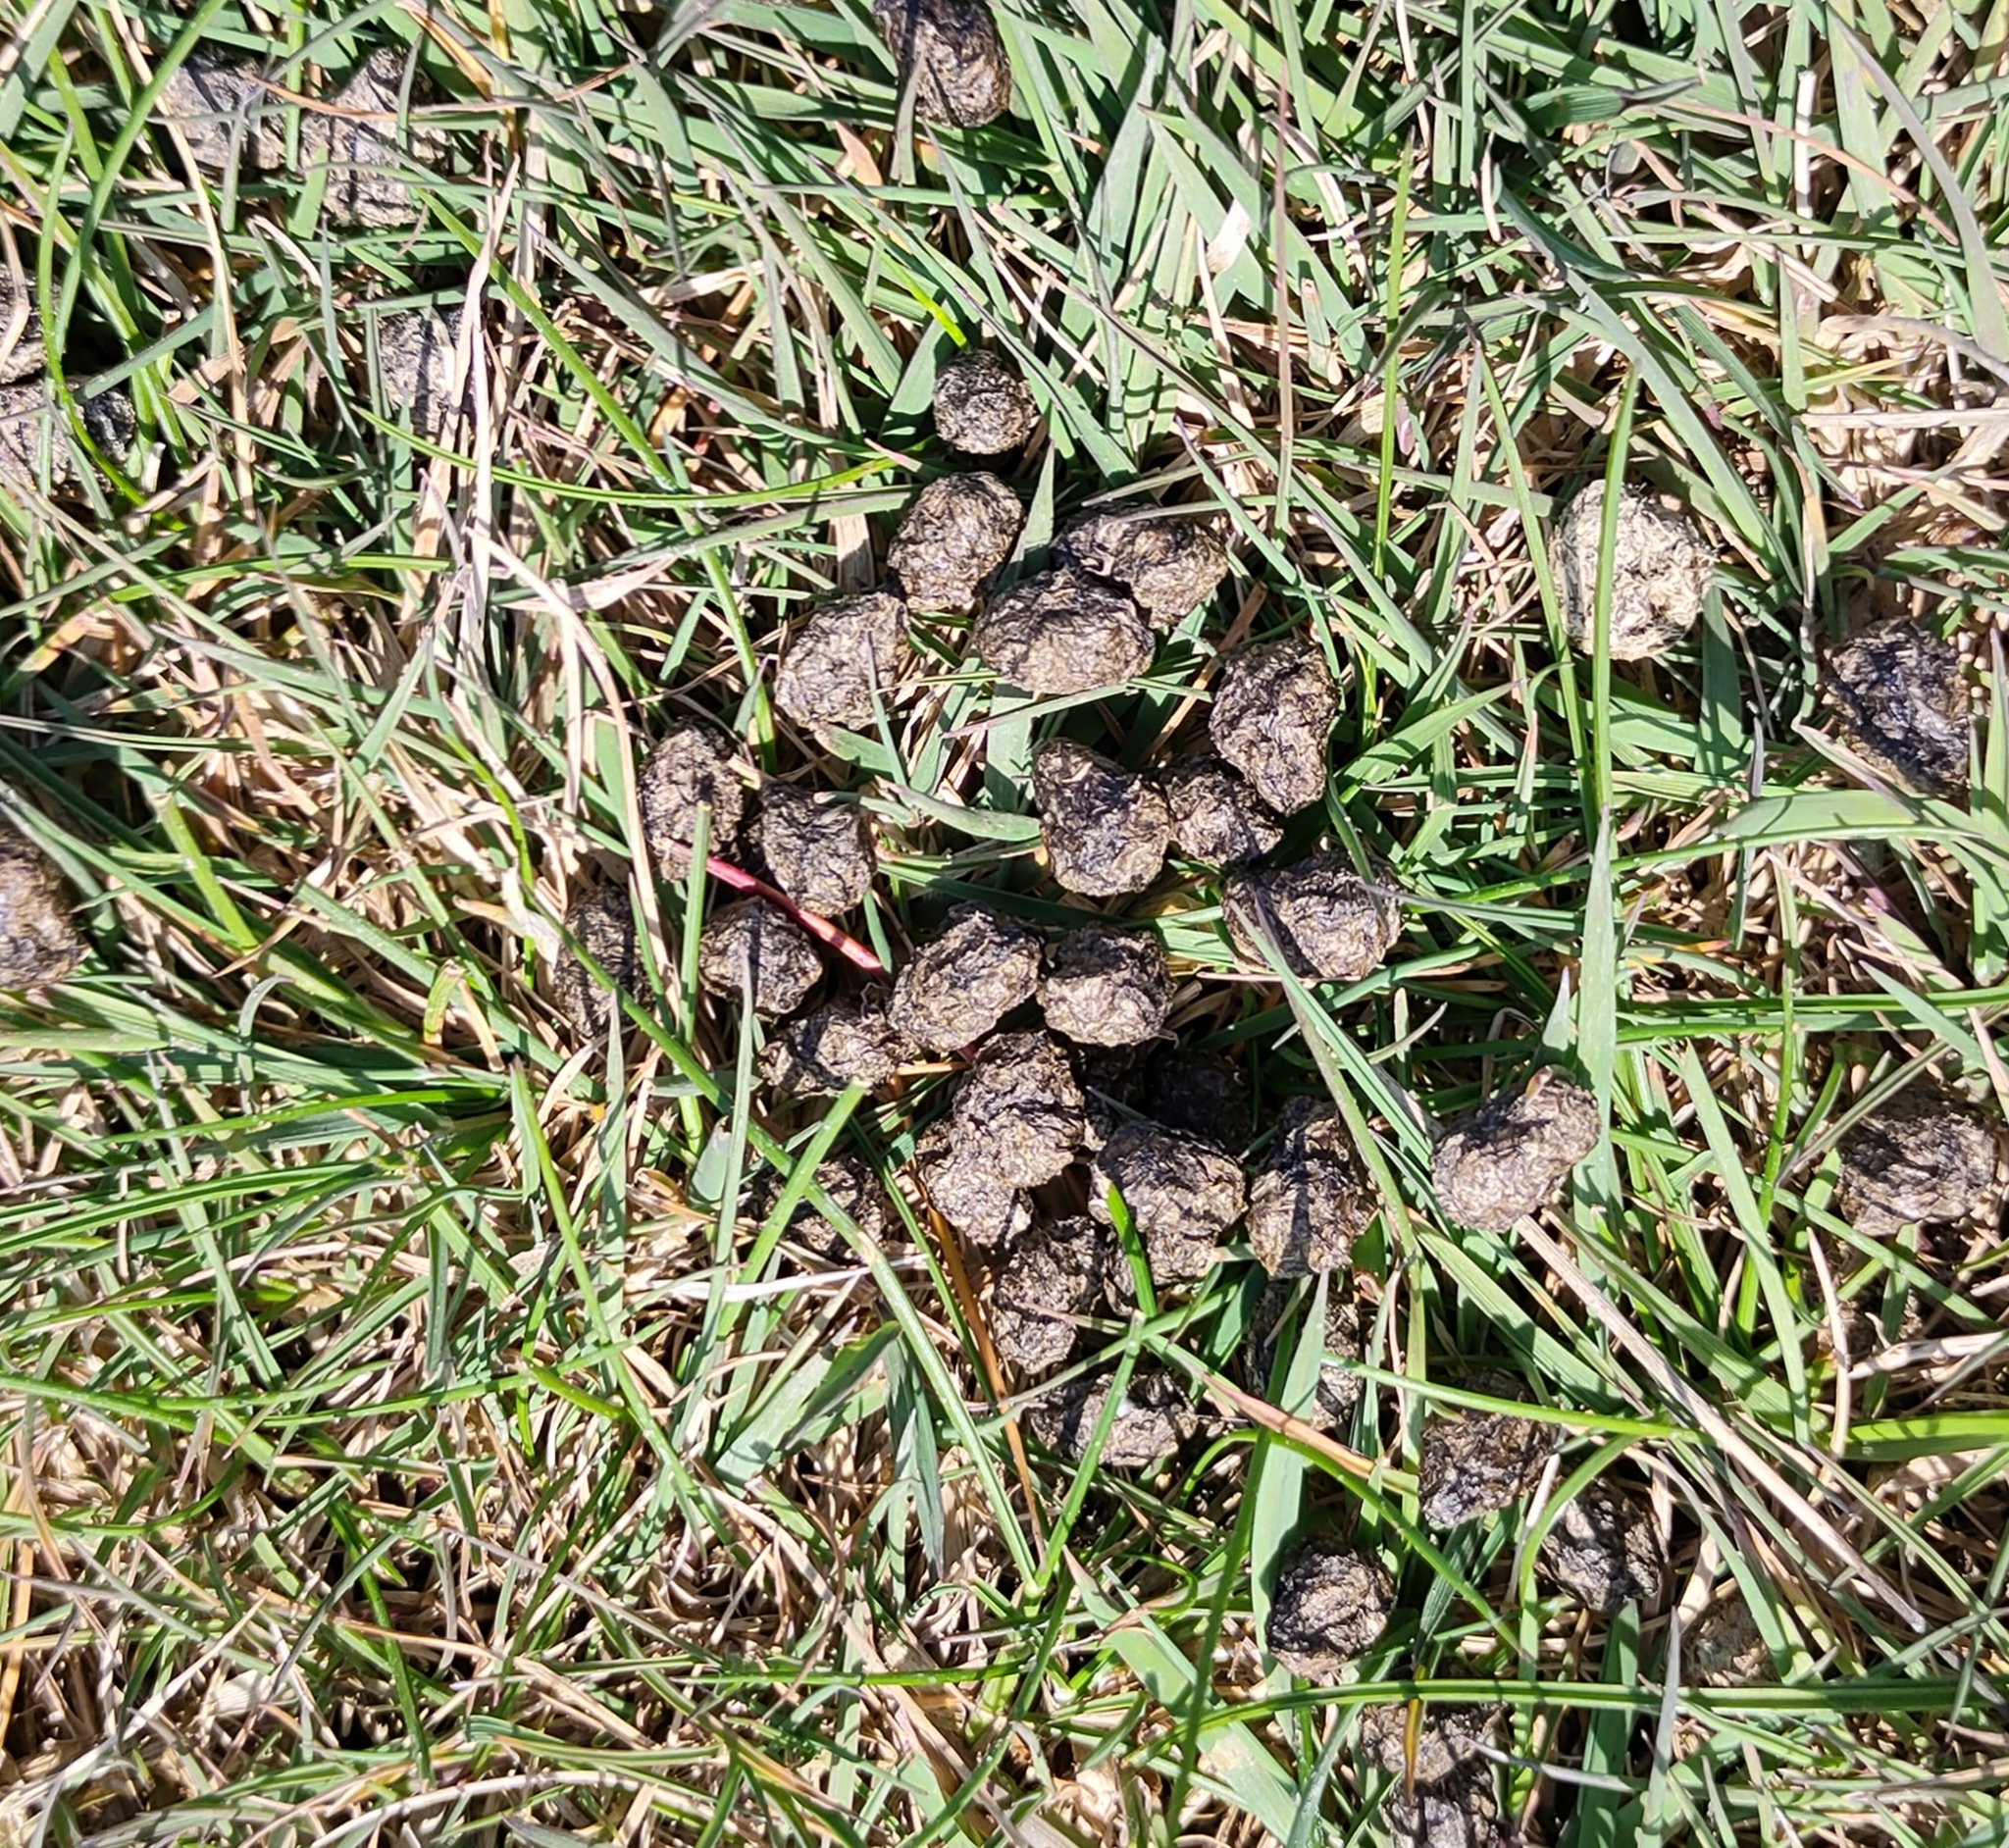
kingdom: Animalia
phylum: Chordata
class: Mammalia
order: Lagomorpha
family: Leporidae
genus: Oryctolagus
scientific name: Oryctolagus cuniculus
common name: European rabbit
